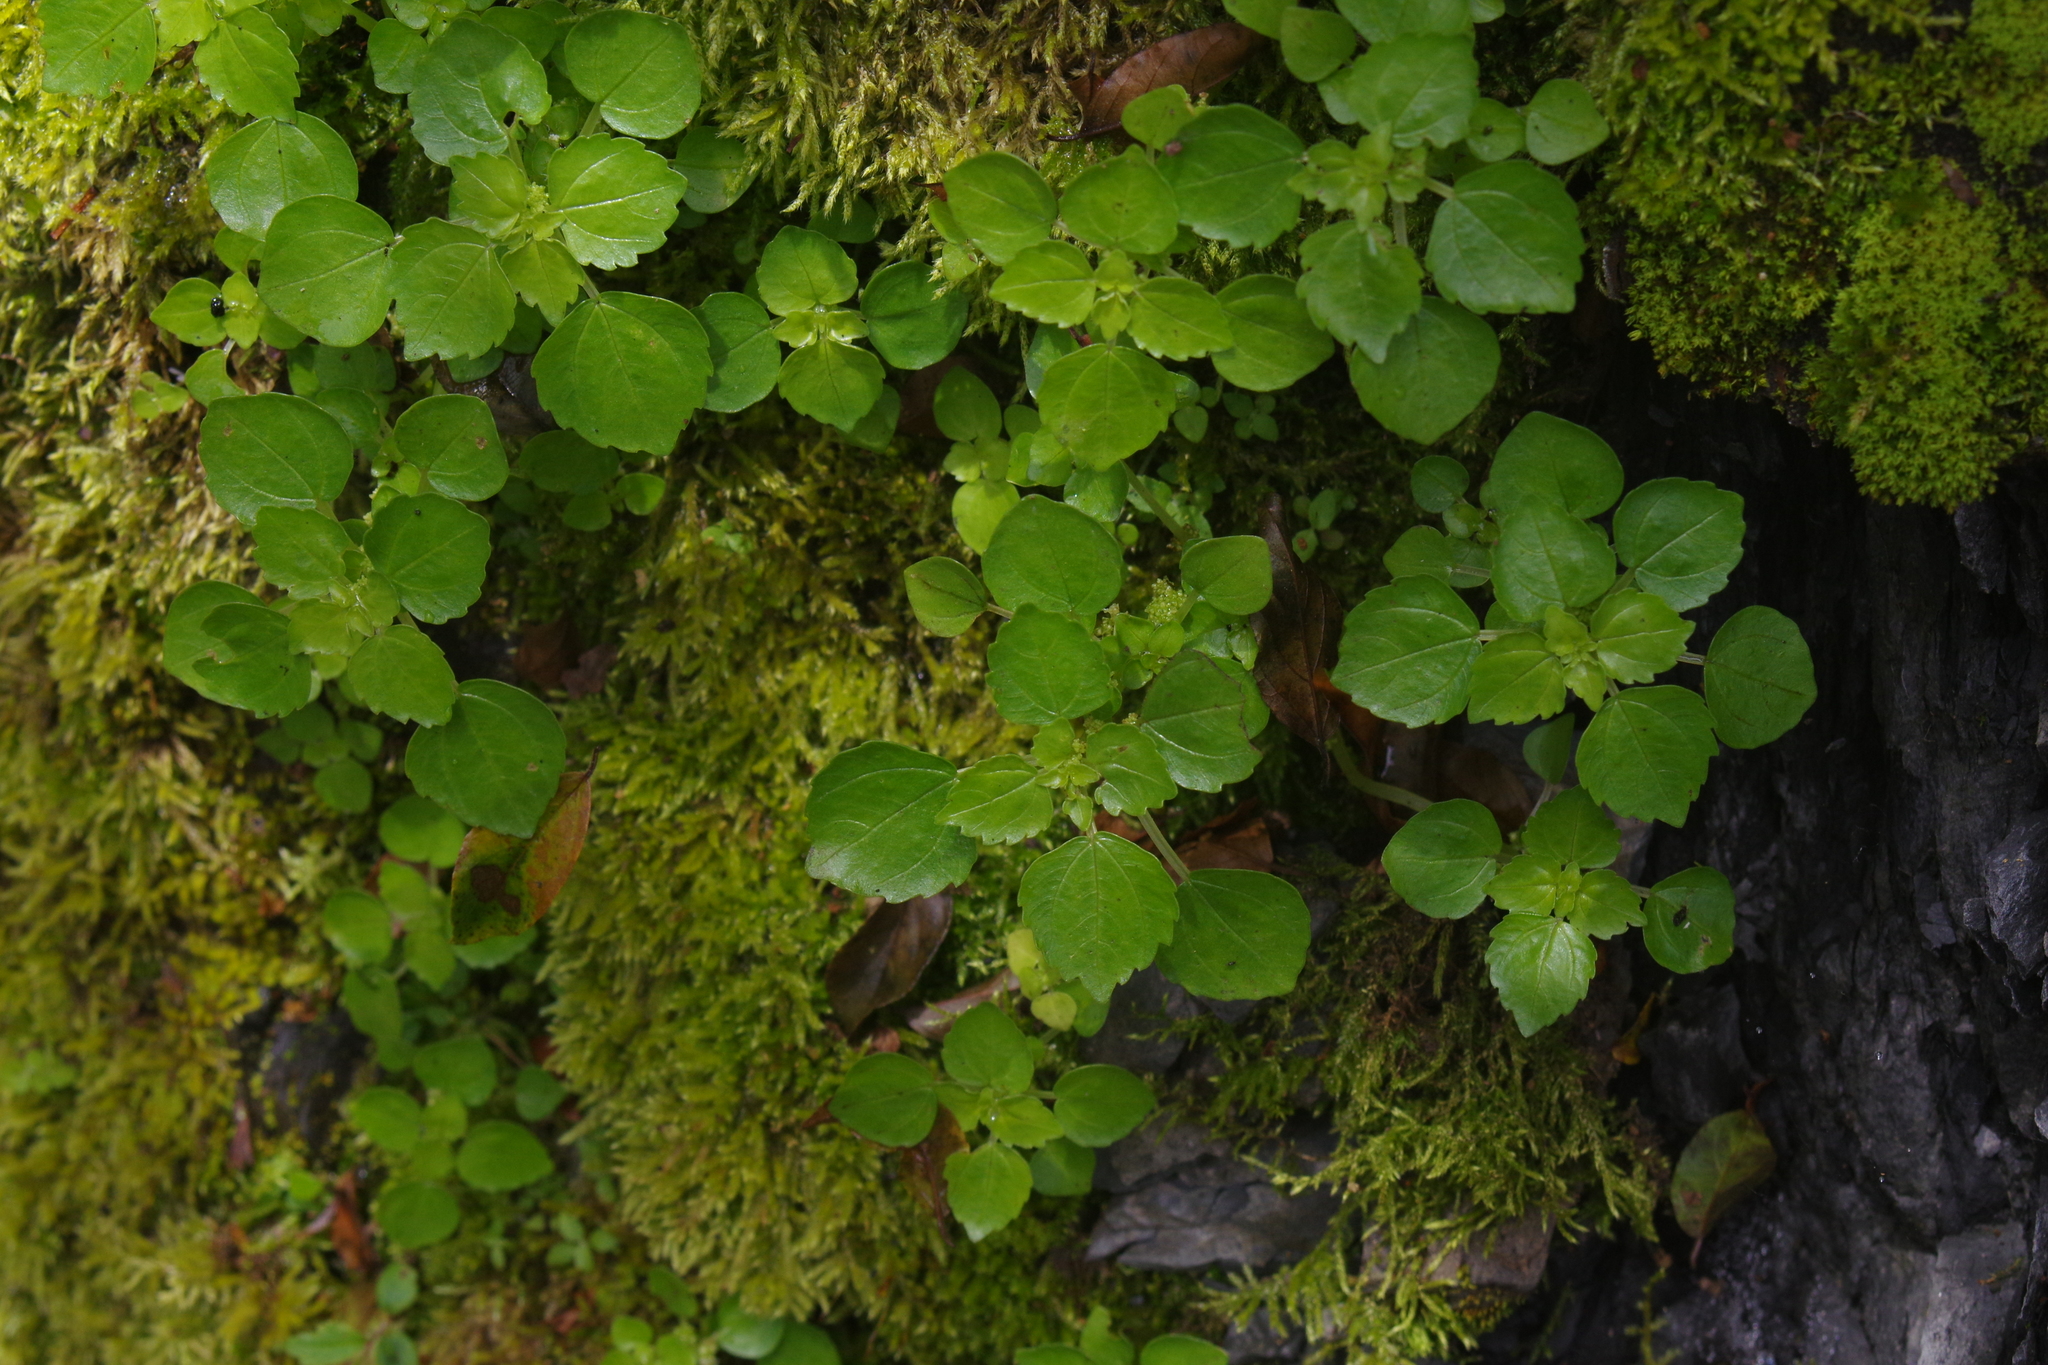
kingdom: Plantae
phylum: Tracheophyta
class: Magnoliopsida
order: Rosales
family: Urticaceae
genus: Pilea
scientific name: Pilea swinglei
